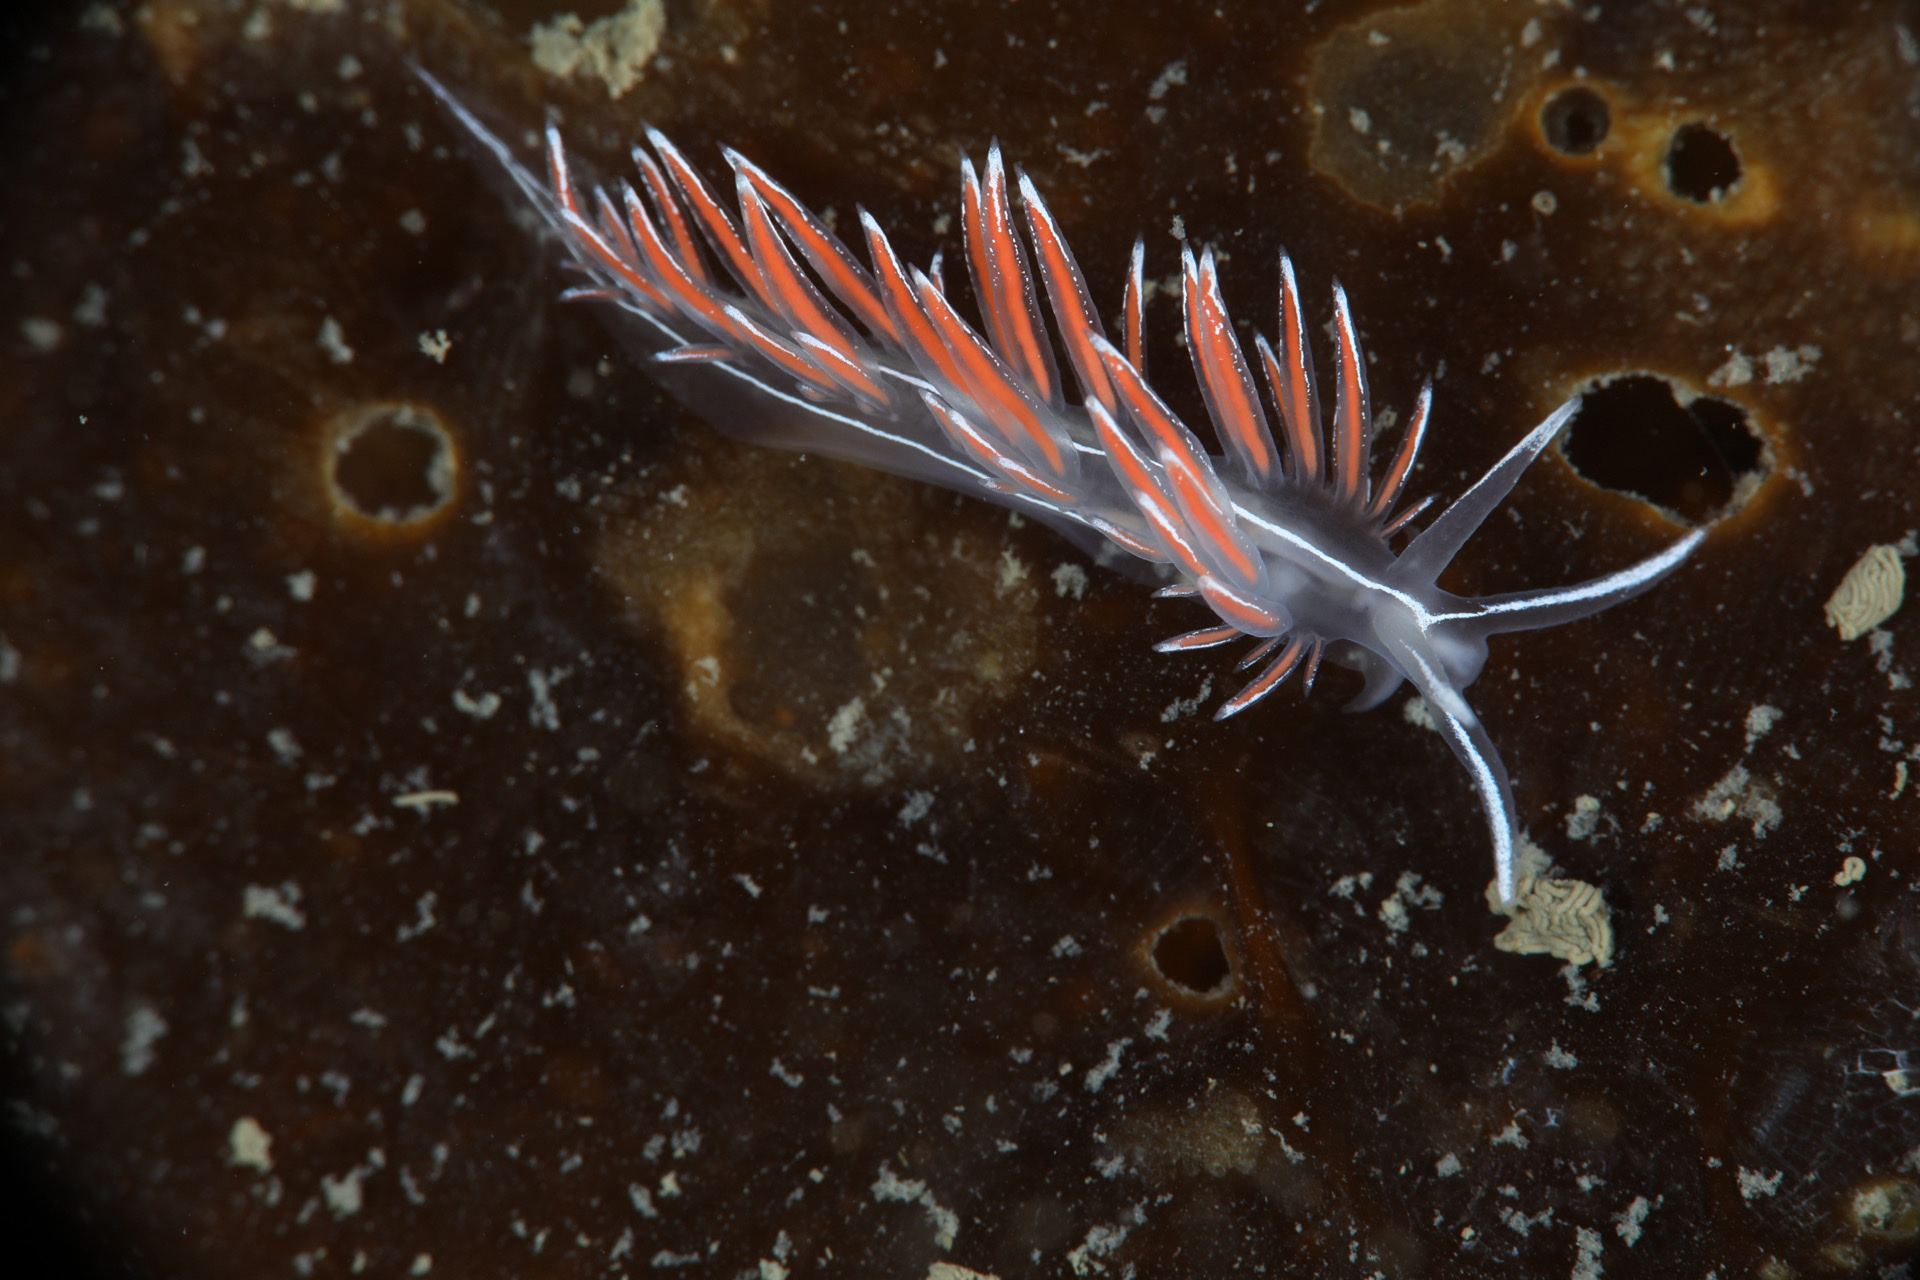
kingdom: Animalia
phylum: Mollusca
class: Gastropoda
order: Nudibranchia
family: Coryphellidae
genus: Coryphella
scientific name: Coryphella lineata
